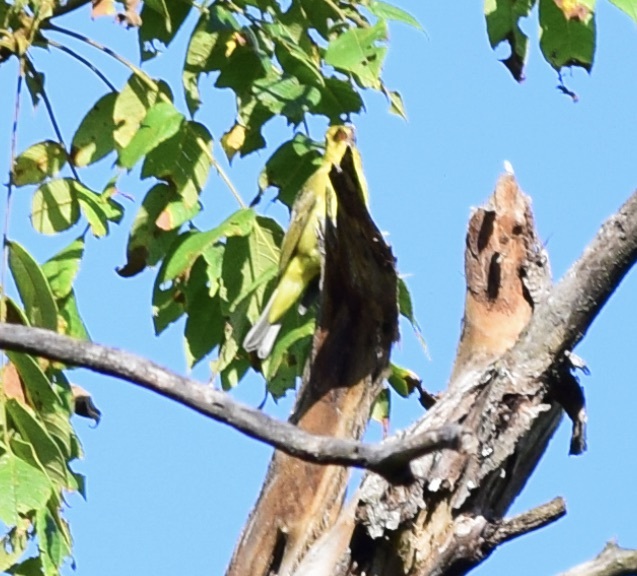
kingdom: Animalia
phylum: Chordata
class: Aves
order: Passeriformes
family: Cardinalidae
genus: Piranga
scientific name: Piranga olivacea
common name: Scarlet tanager
